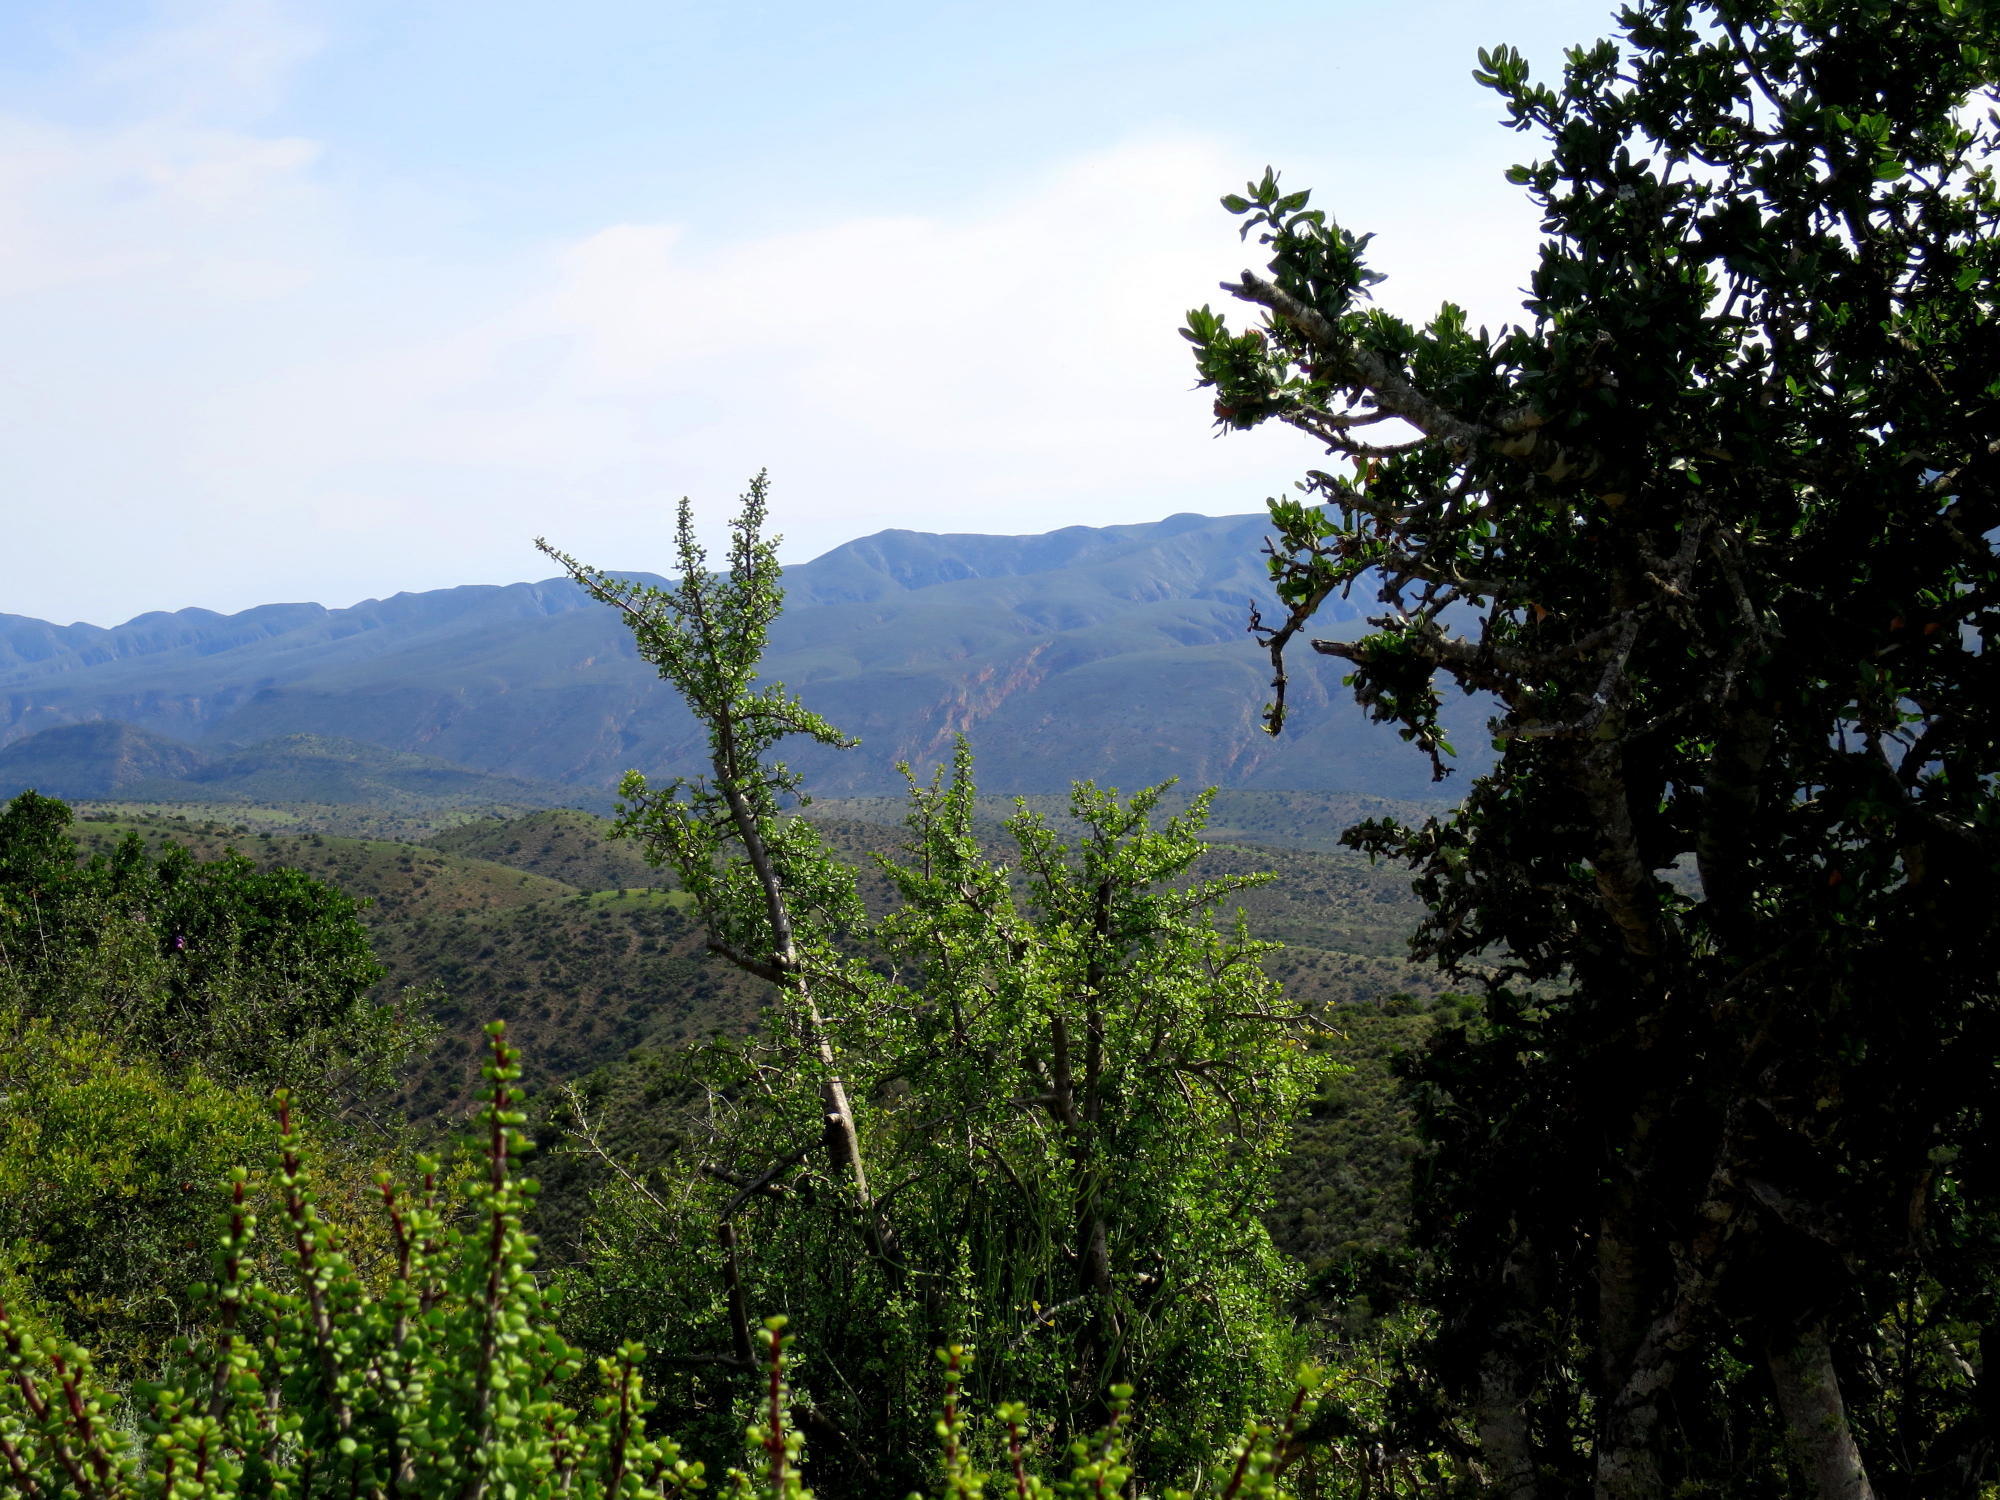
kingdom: Plantae
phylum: Tracheophyta
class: Magnoliopsida
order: Caryophyllales
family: Didiereaceae
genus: Portulacaria
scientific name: Portulacaria afra
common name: Elephant-bush
